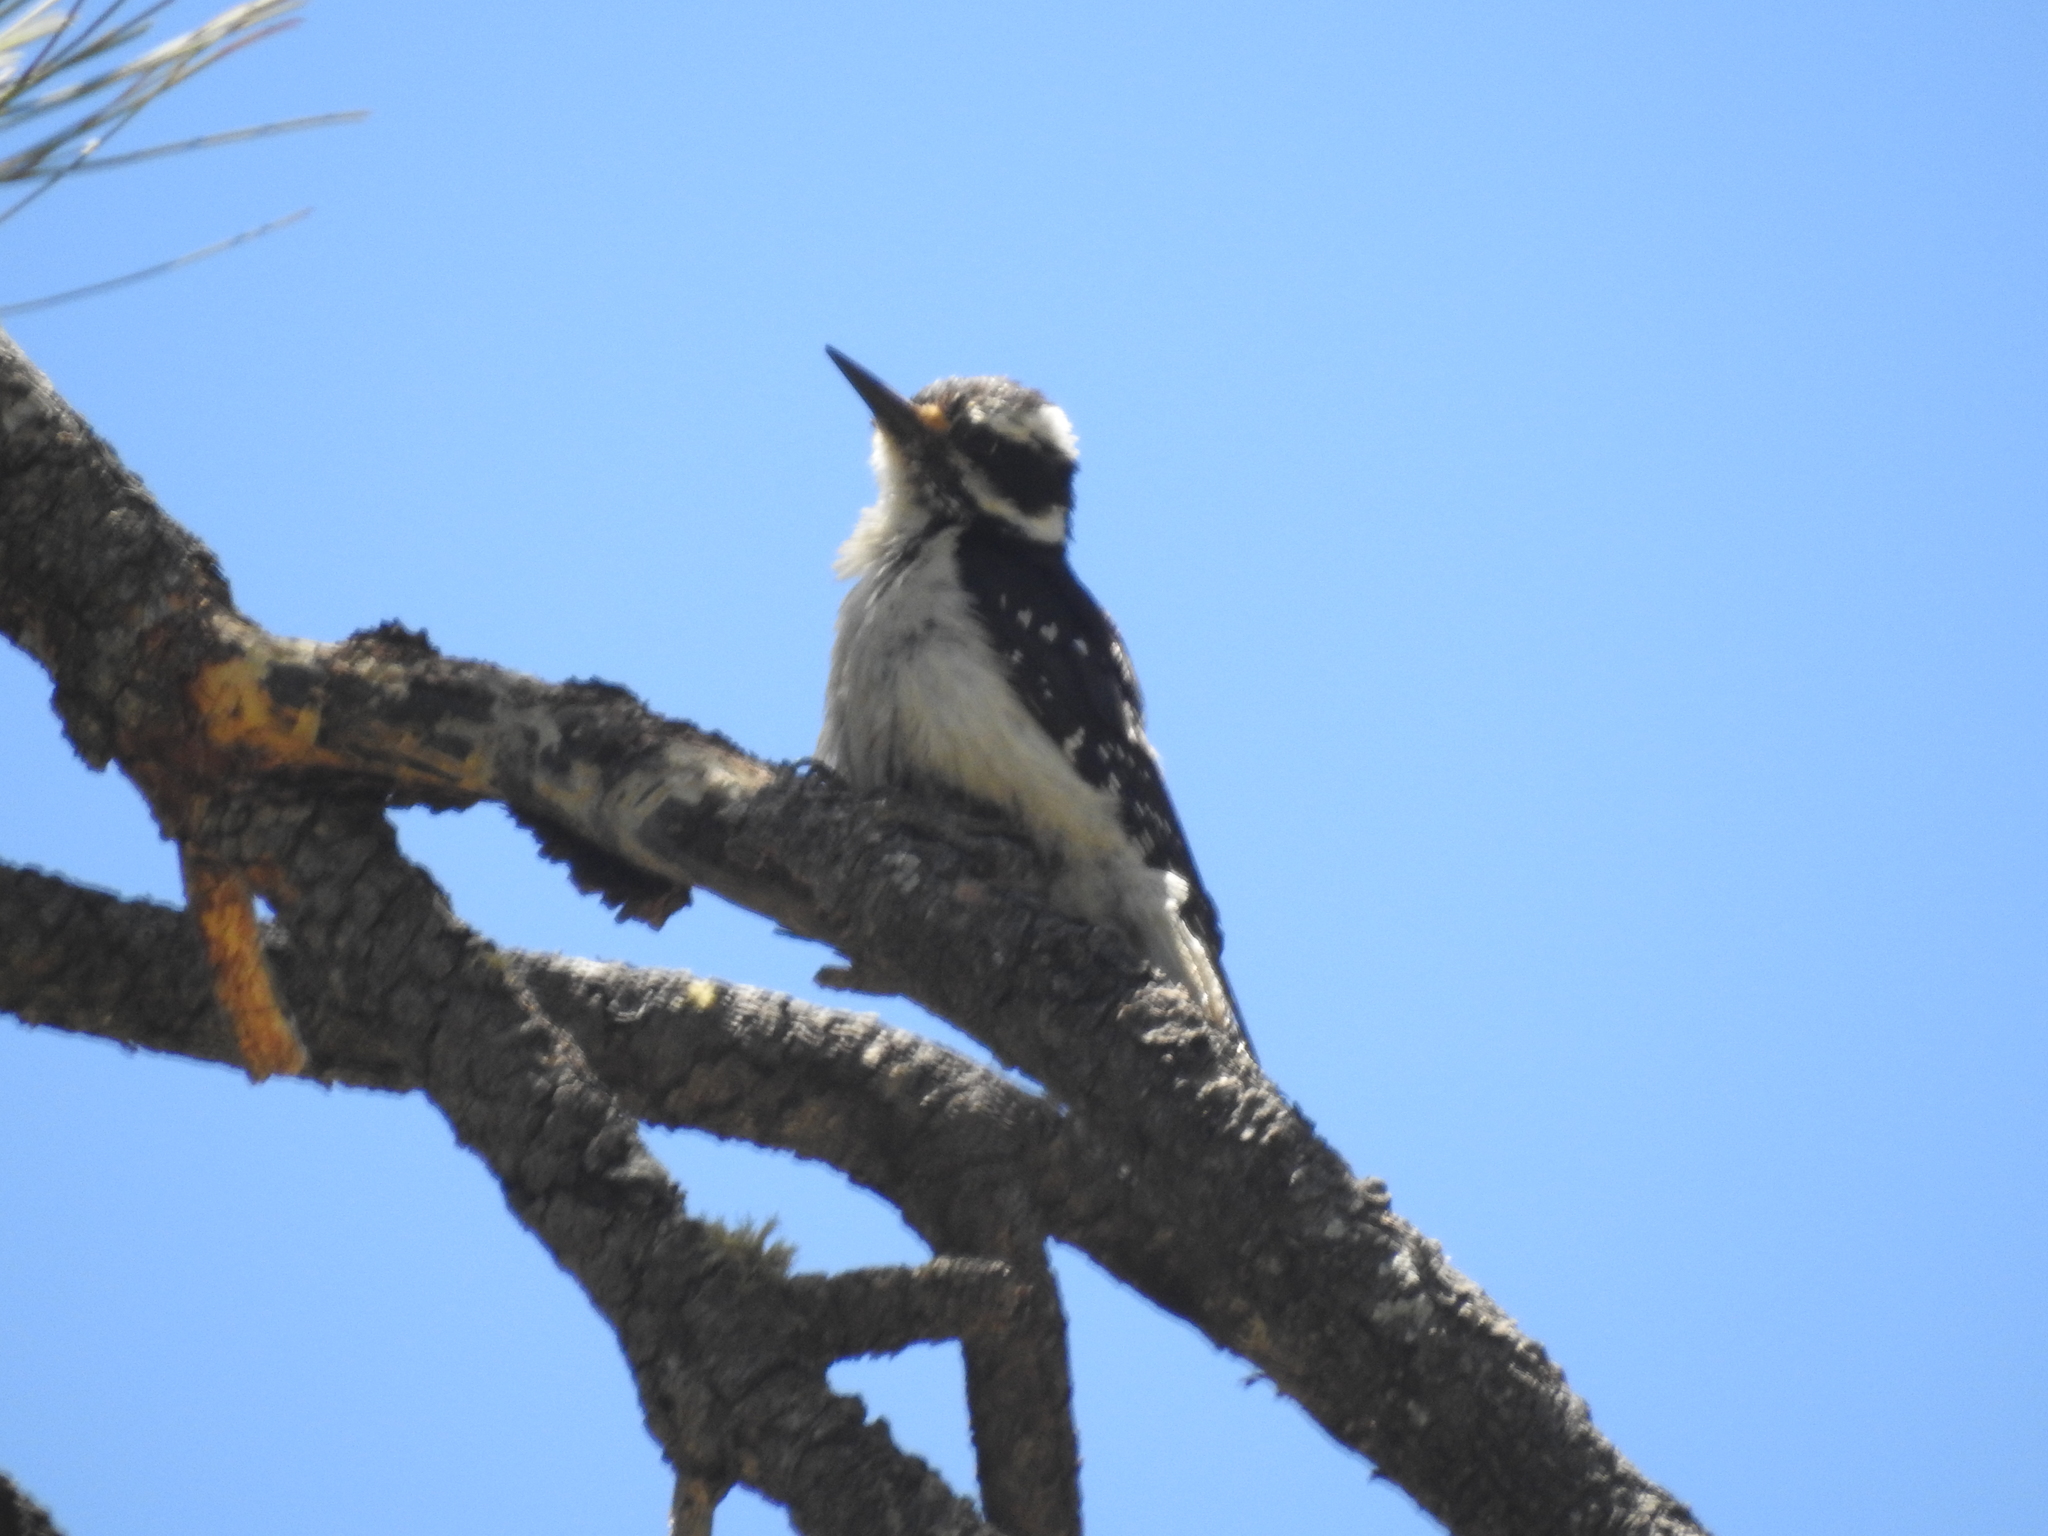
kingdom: Animalia
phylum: Chordata
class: Aves
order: Piciformes
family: Picidae
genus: Leuconotopicus
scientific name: Leuconotopicus villosus
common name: Hairy woodpecker
